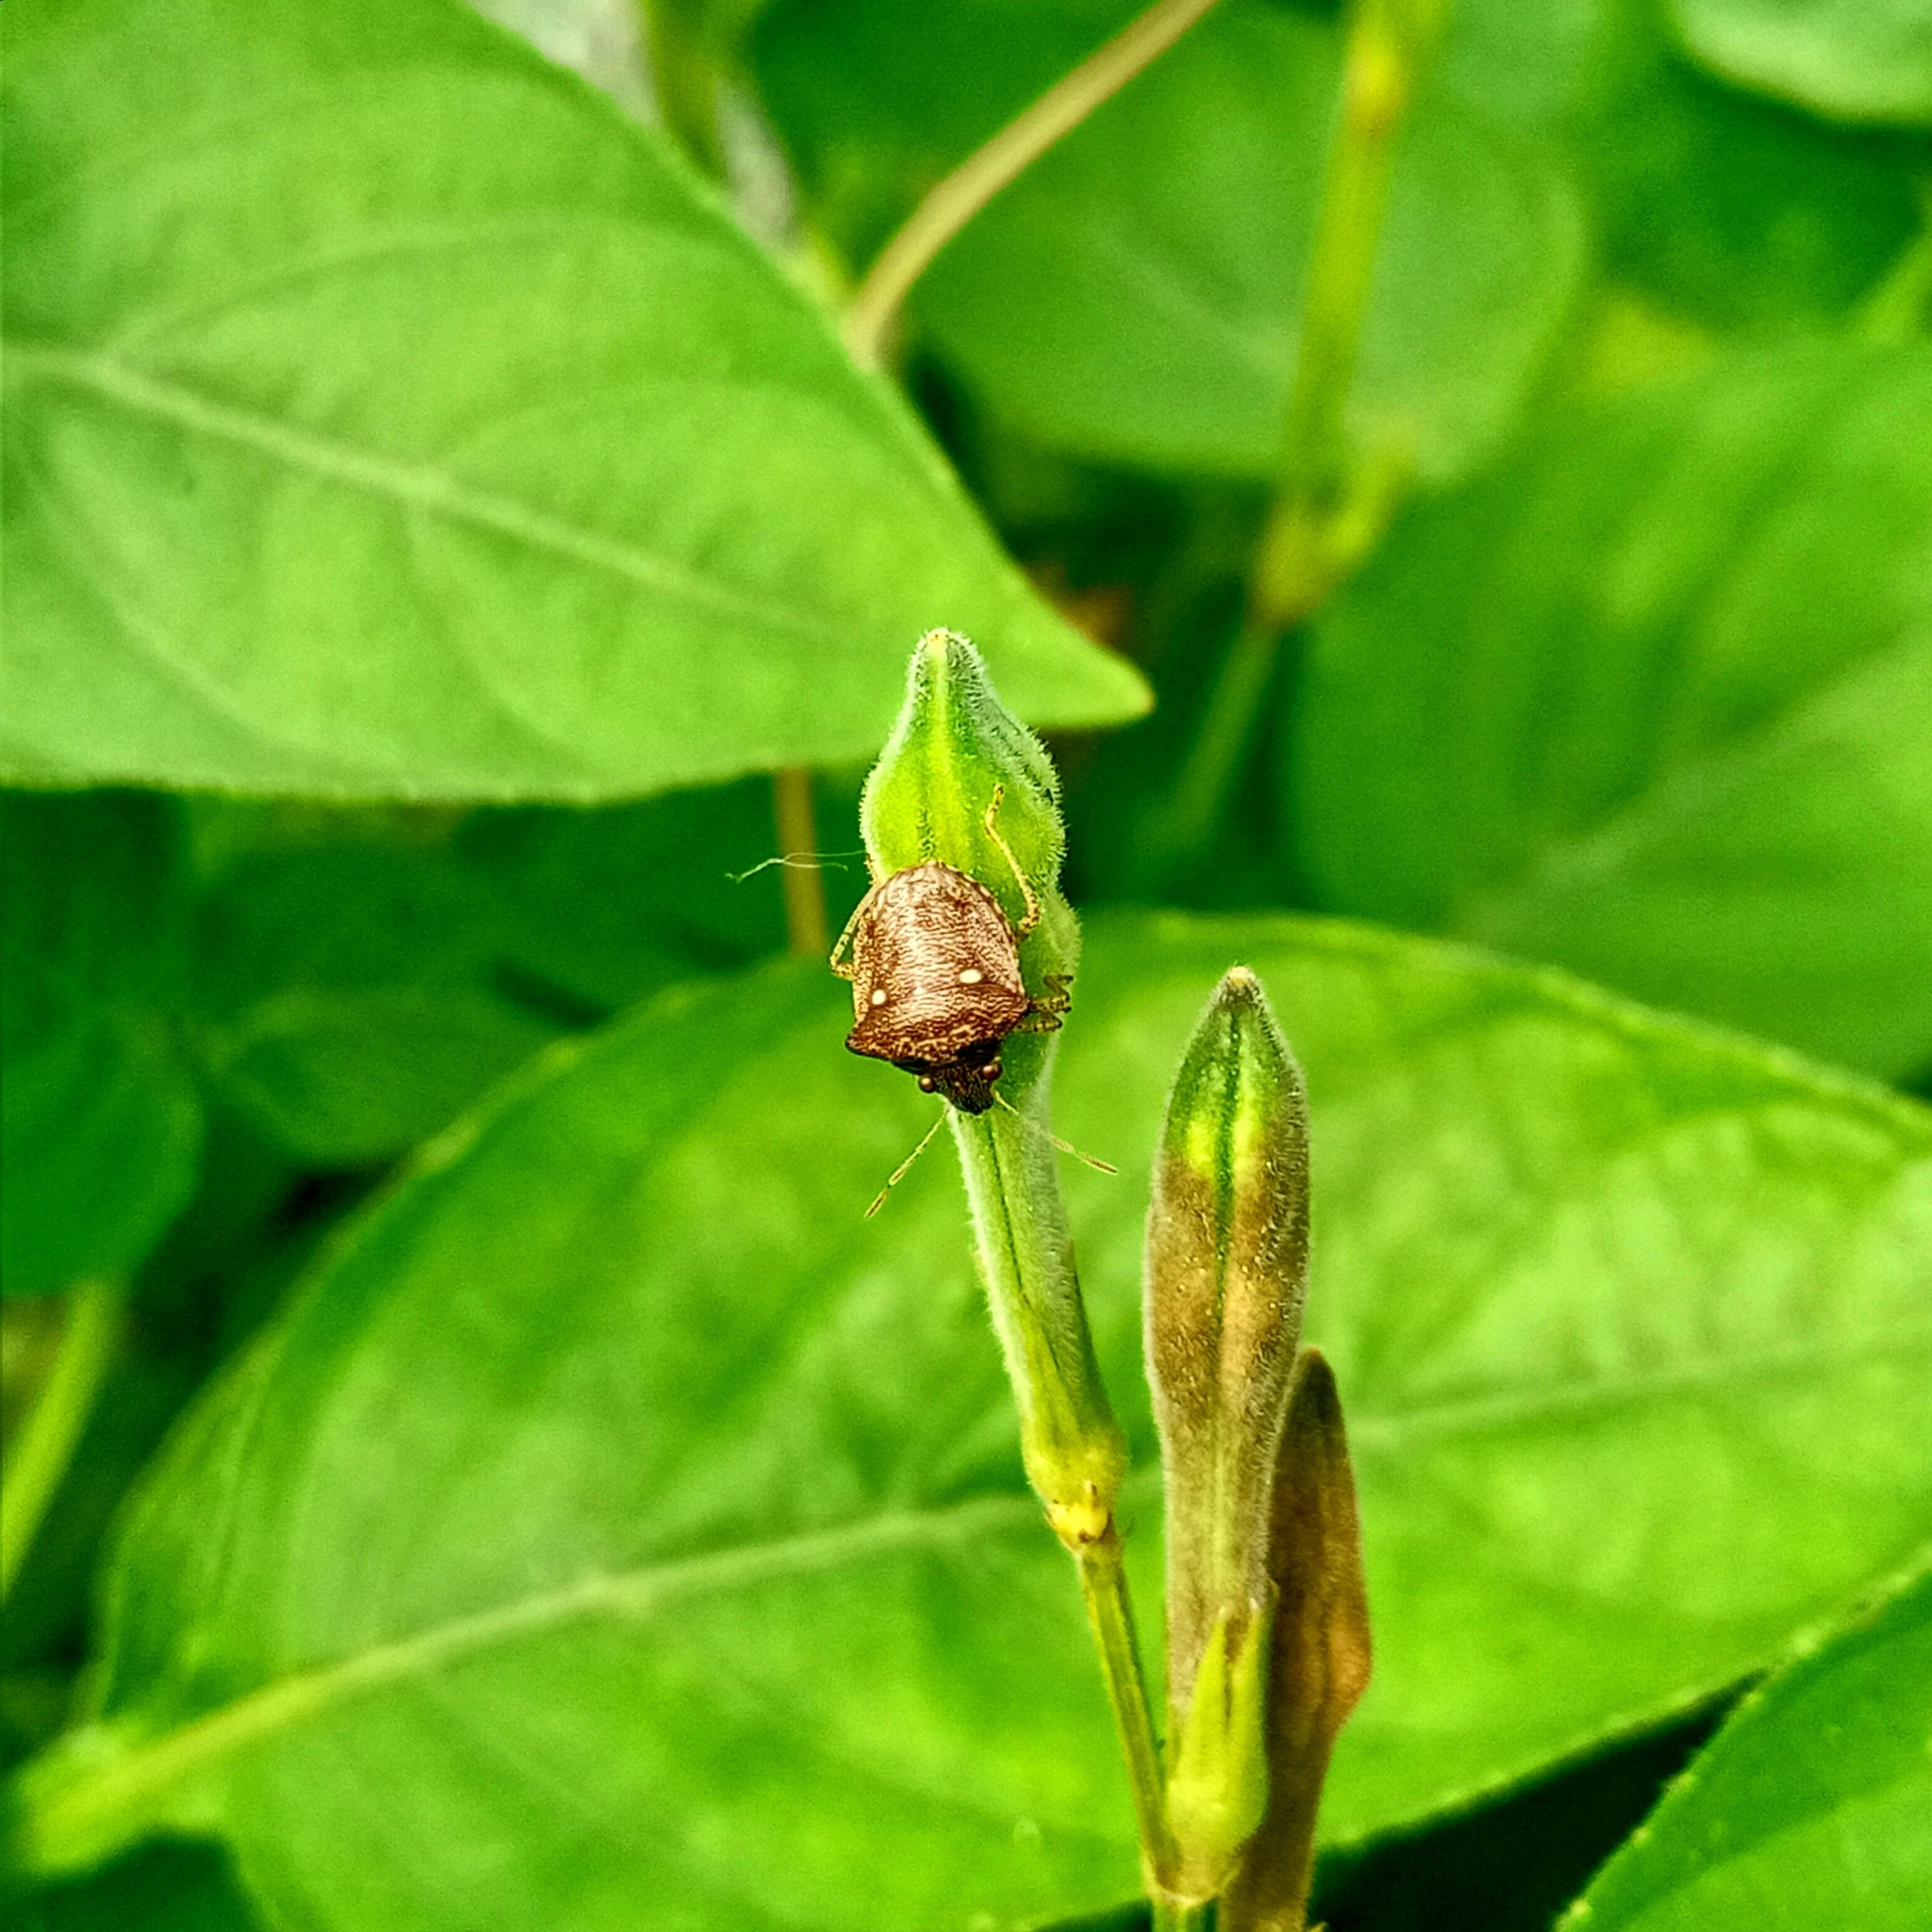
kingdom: Animalia
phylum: Arthropoda
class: Insecta
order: Hemiptera
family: Pentatomidae
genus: Eysarcoris
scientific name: Eysarcoris guttigerus
